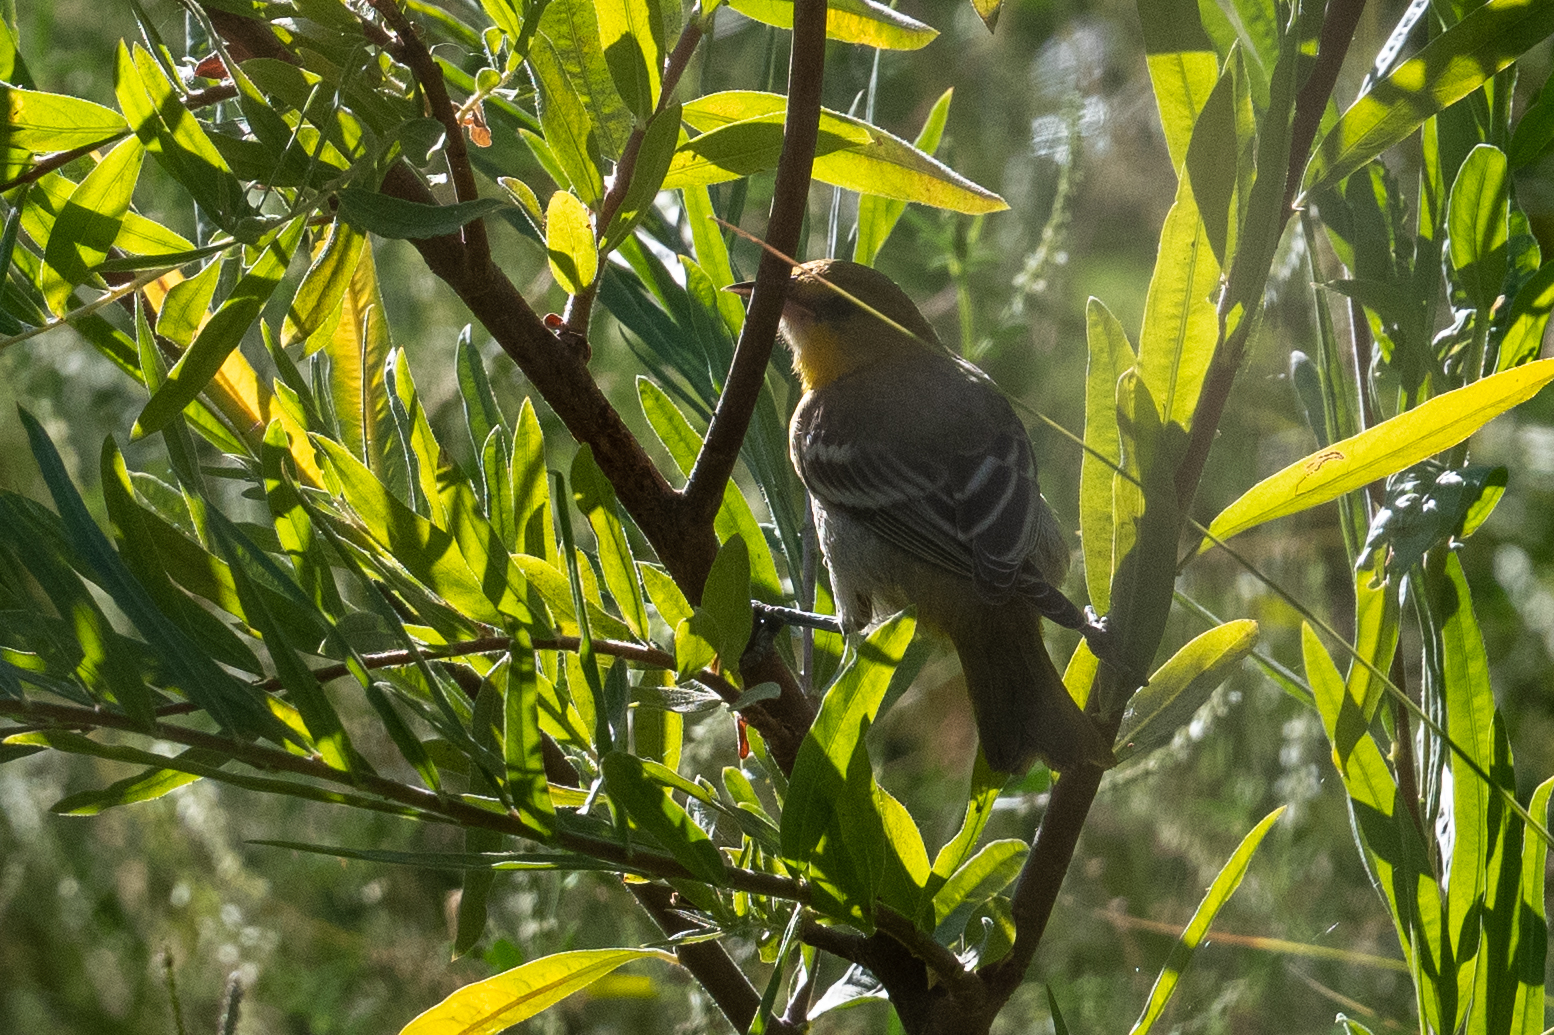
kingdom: Animalia
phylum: Chordata
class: Aves
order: Passeriformes
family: Icteridae
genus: Icterus
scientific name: Icterus bullockii
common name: Bullock's oriole
